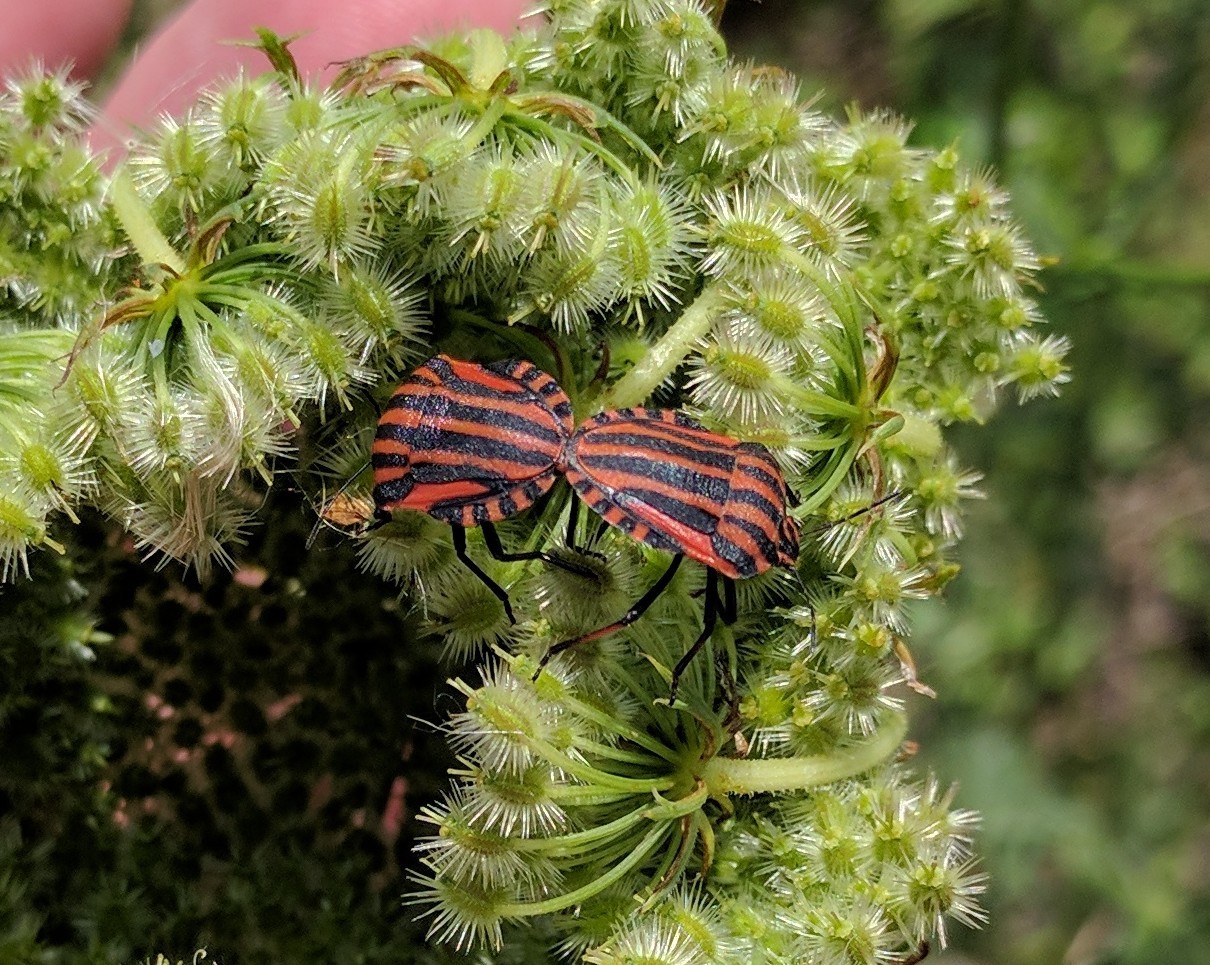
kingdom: Animalia
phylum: Arthropoda
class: Insecta
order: Hemiptera
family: Pentatomidae
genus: Graphosoma
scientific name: Graphosoma italicum
